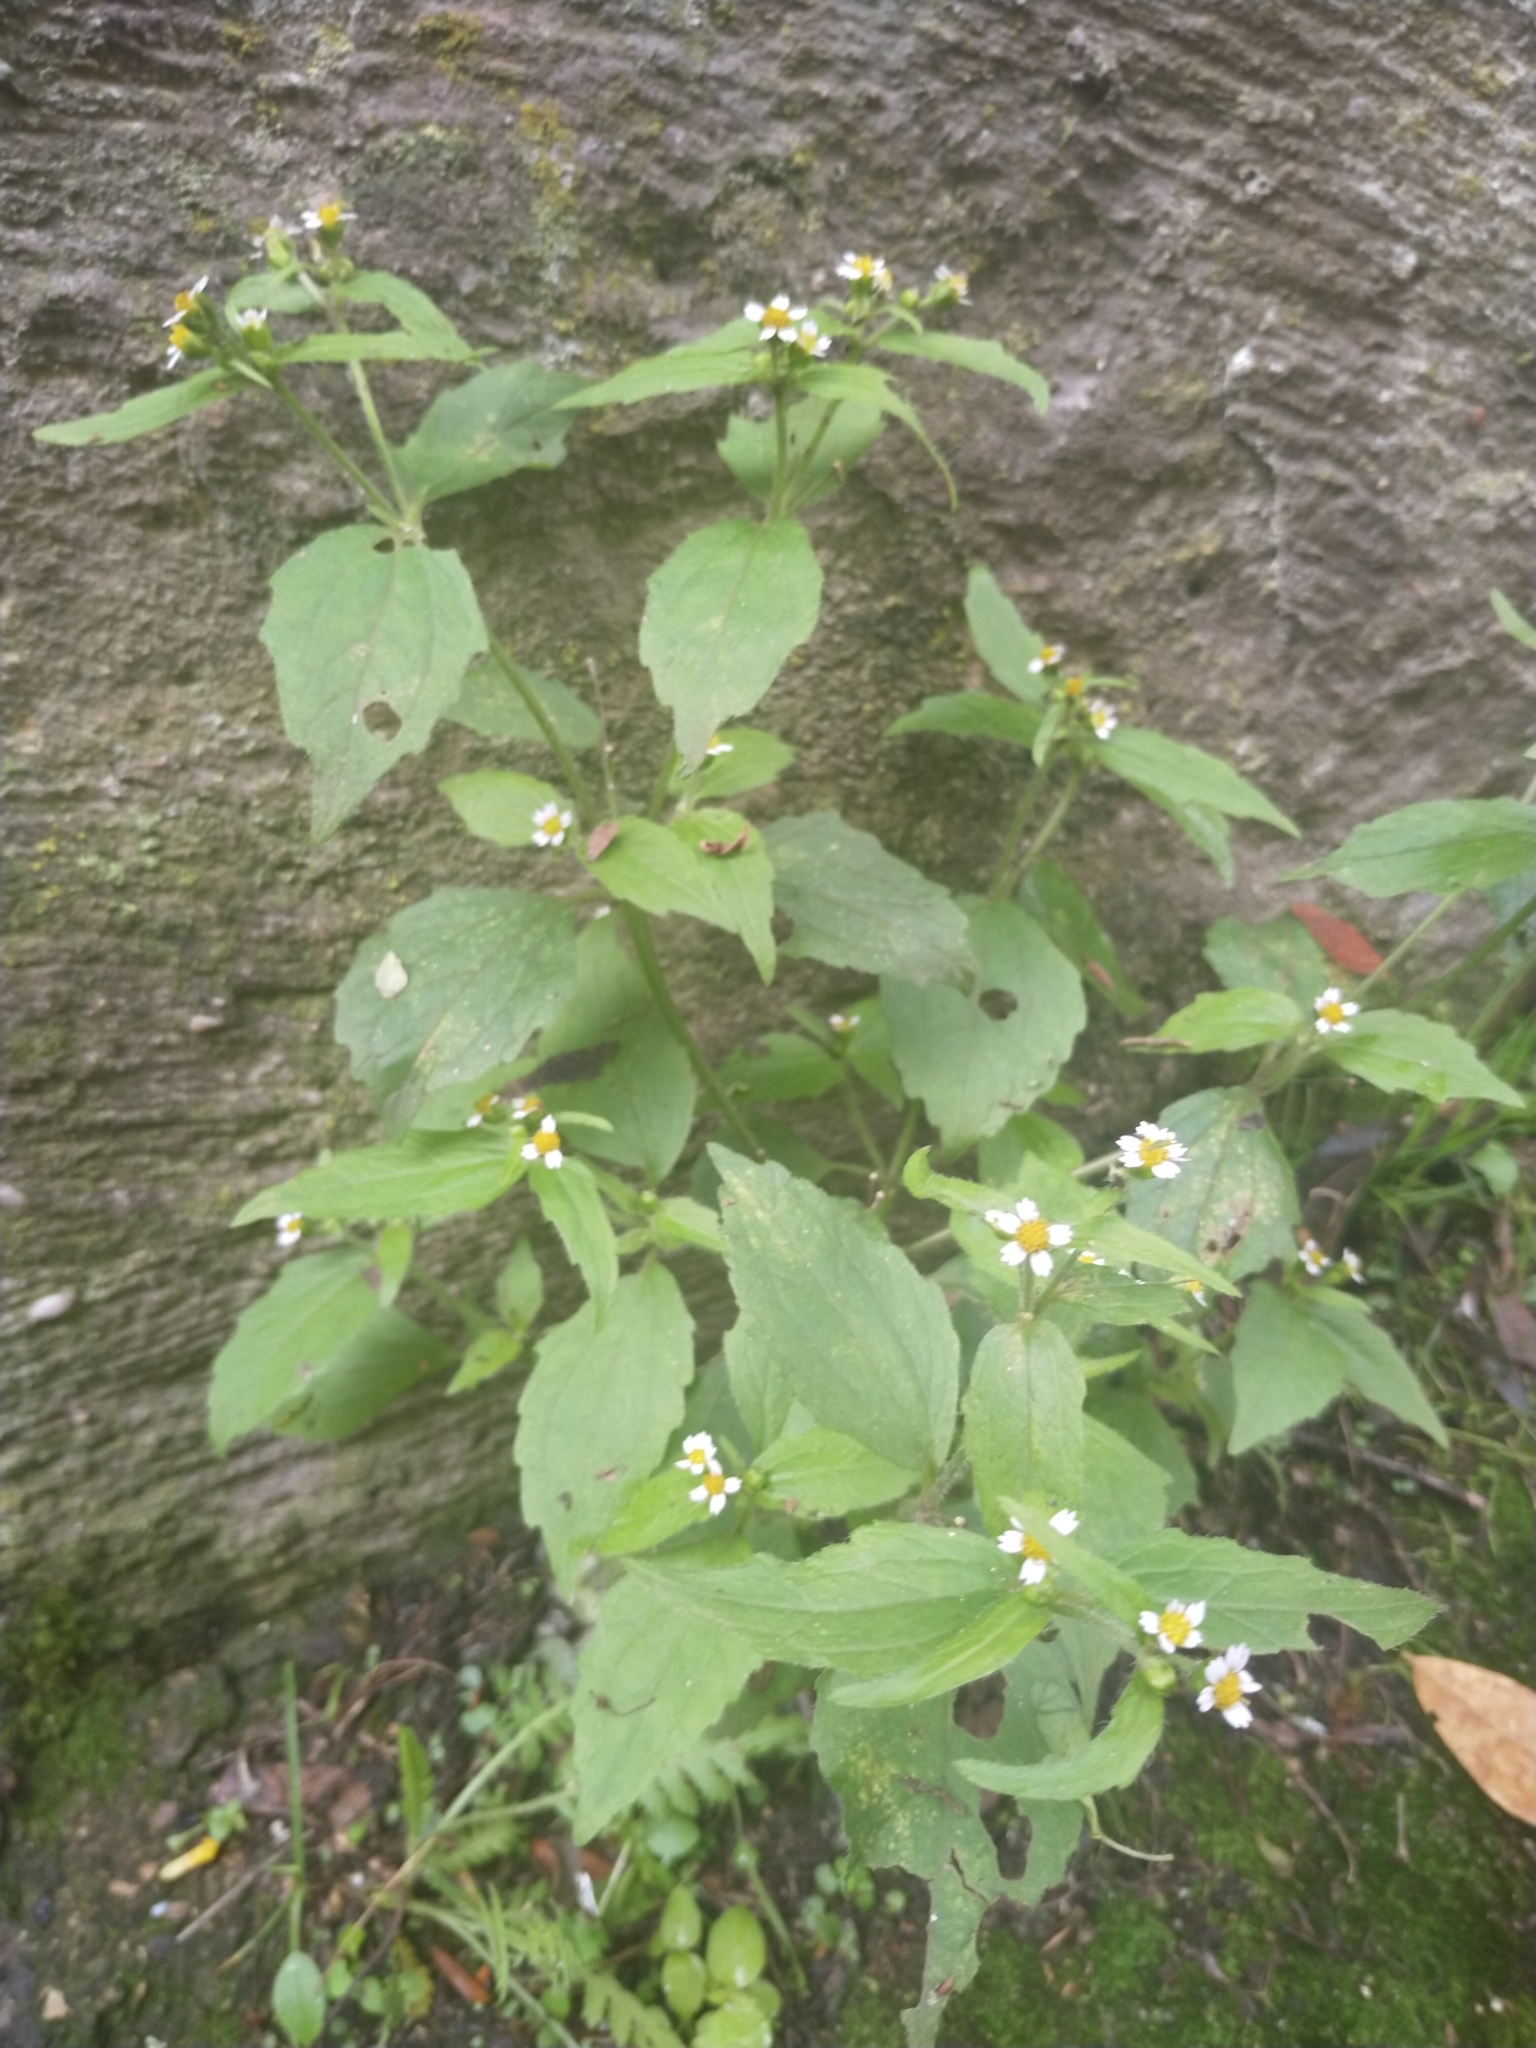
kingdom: Plantae
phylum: Tracheophyta
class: Magnoliopsida
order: Asterales
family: Asteraceae
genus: Galinsoga
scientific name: Galinsoga quadriradiata
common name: Shaggy soldier
